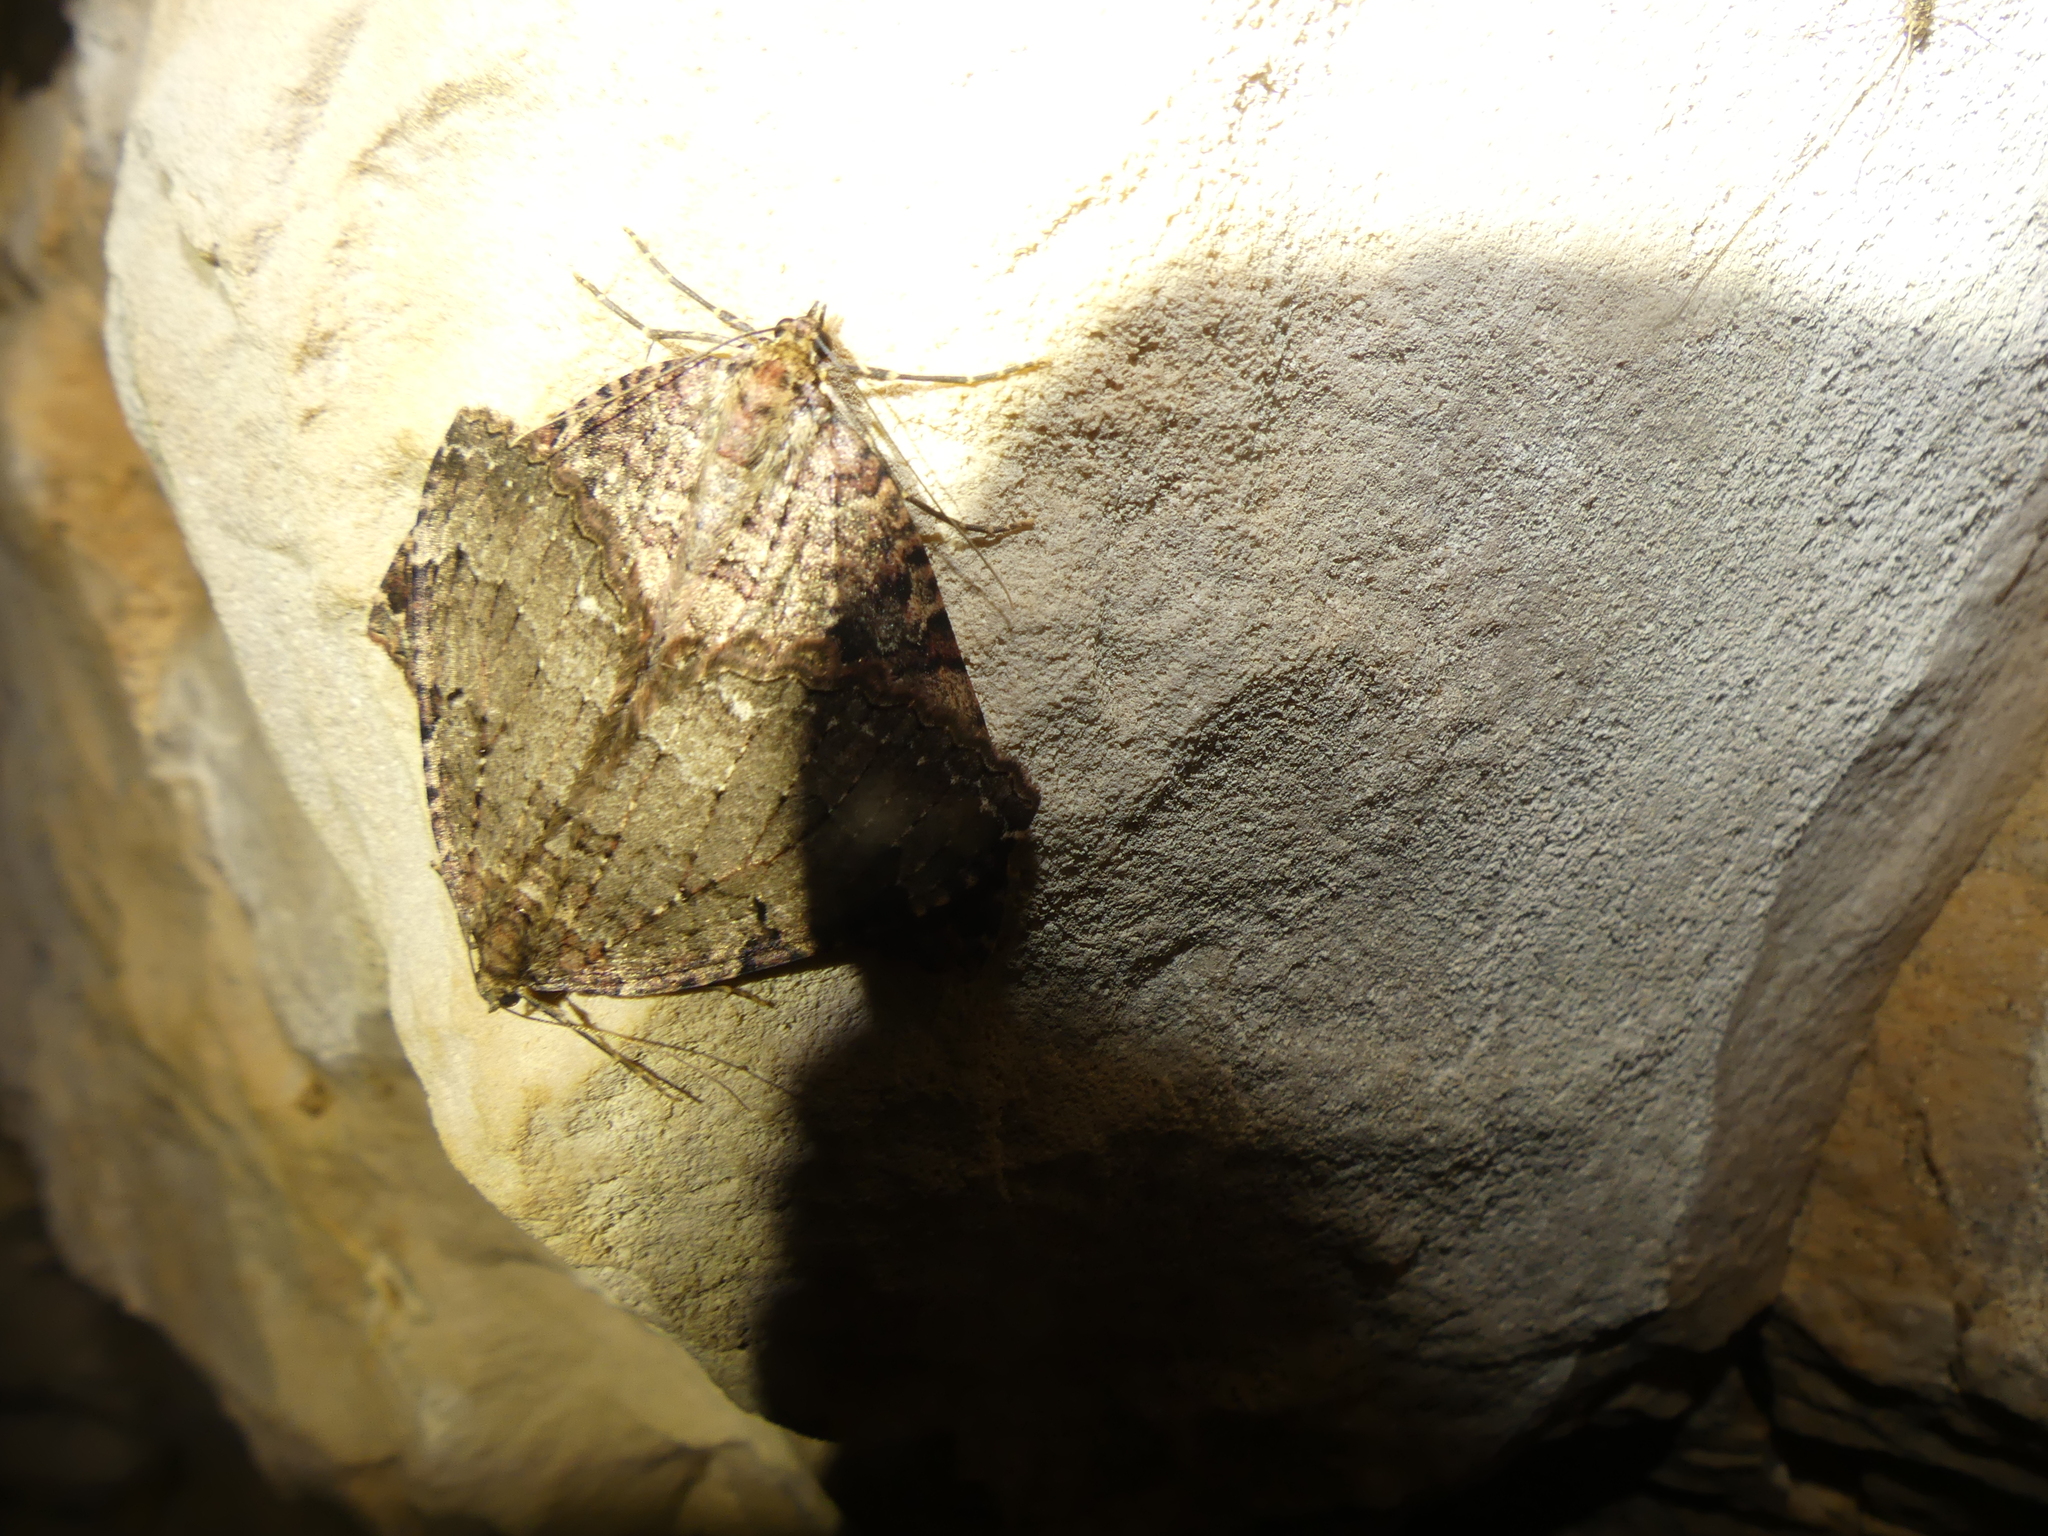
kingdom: Animalia
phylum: Arthropoda
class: Insecta
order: Lepidoptera
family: Geometridae
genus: Triphosa
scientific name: Triphosa dubitata
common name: Tissue
